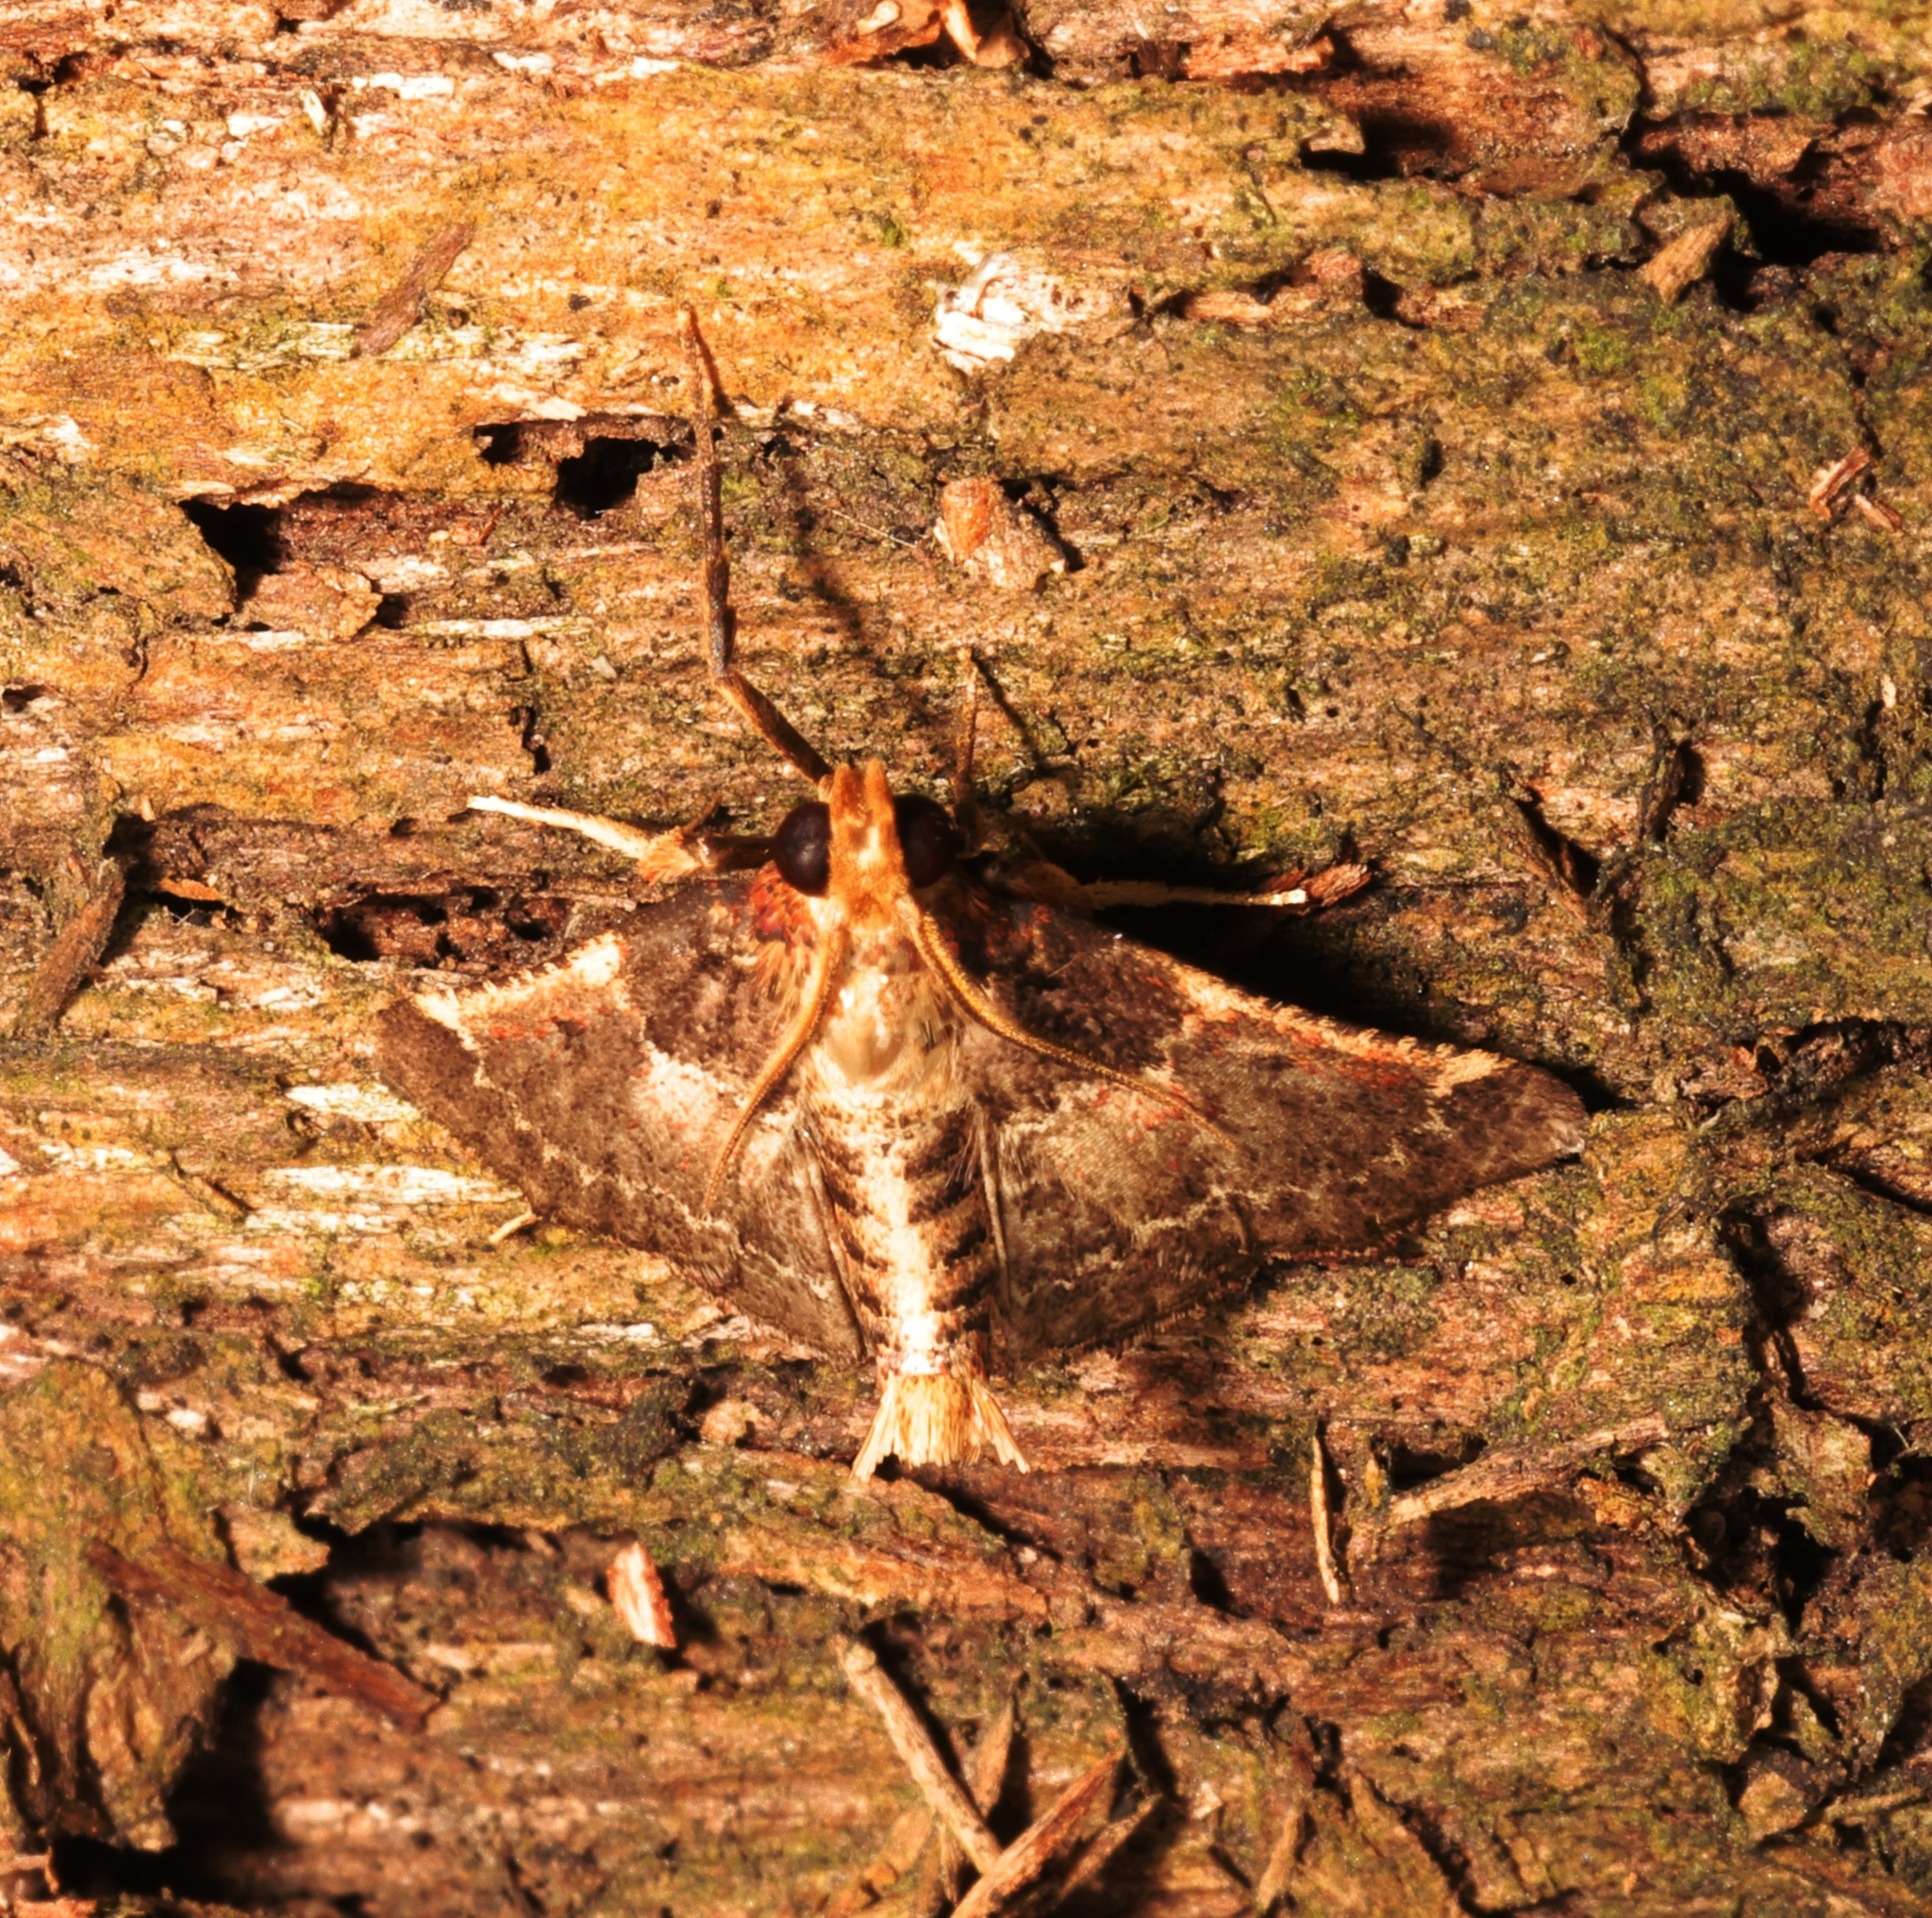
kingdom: Animalia
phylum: Arthropoda
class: Insecta
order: Lepidoptera
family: Pyralidae
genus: Hypanchyla
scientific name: Hypanchyla
